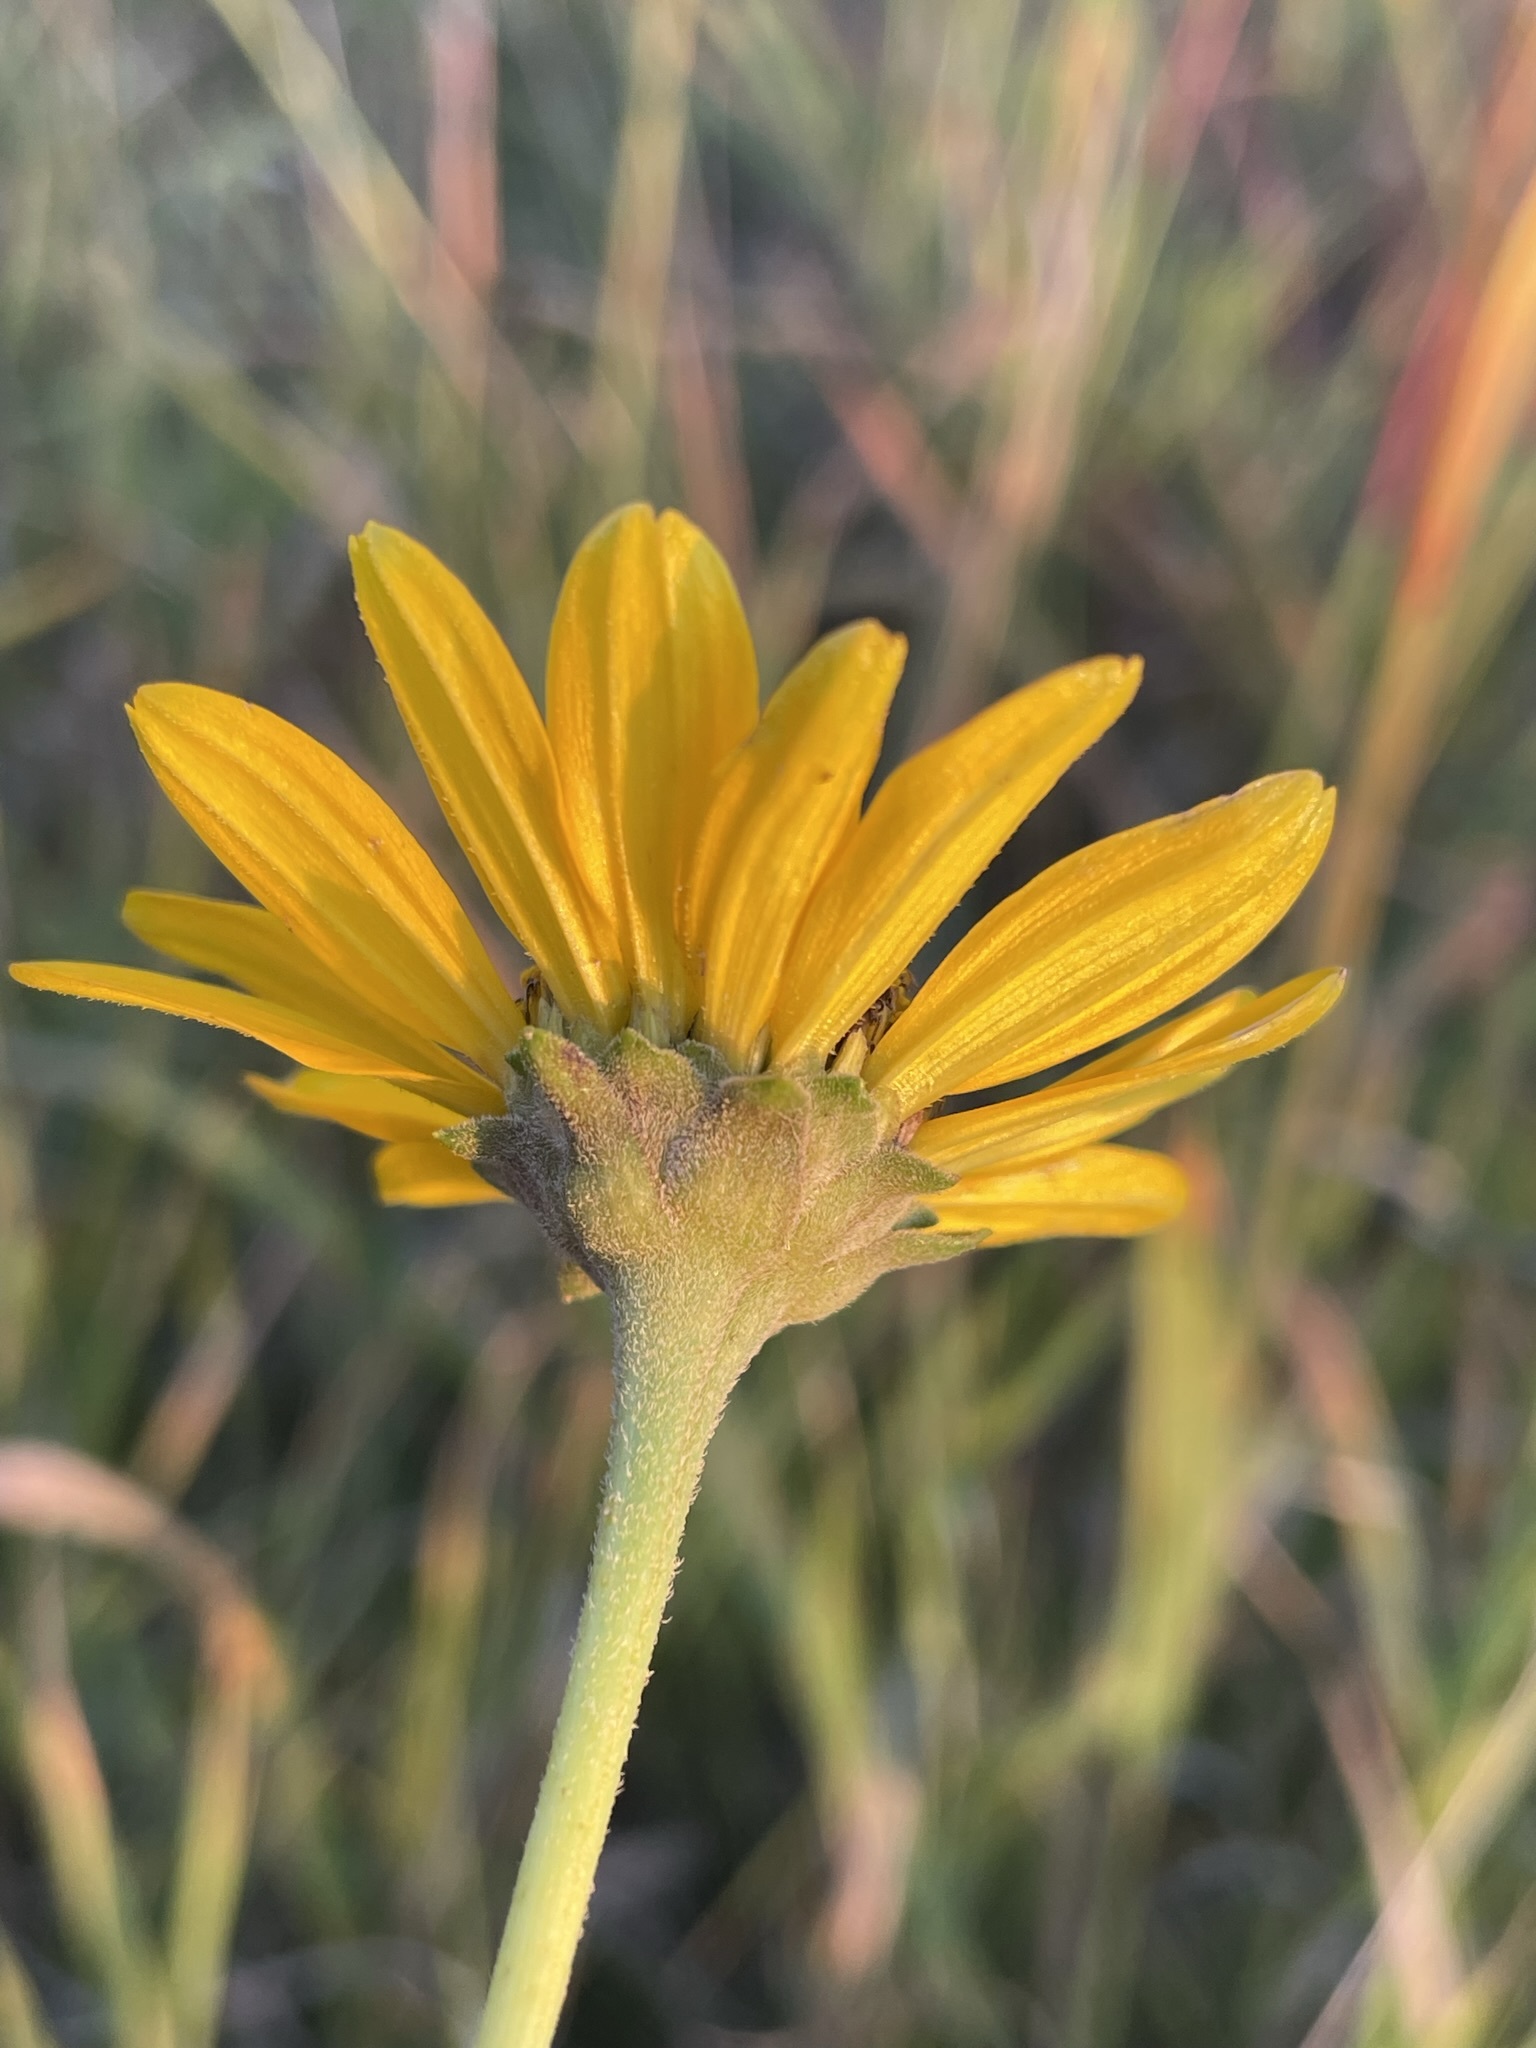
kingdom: Plantae
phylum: Tracheophyta
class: Magnoliopsida
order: Asterales
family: Asteraceae
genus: Heliopsis
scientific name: Heliopsis helianthoides
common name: False sunflower
